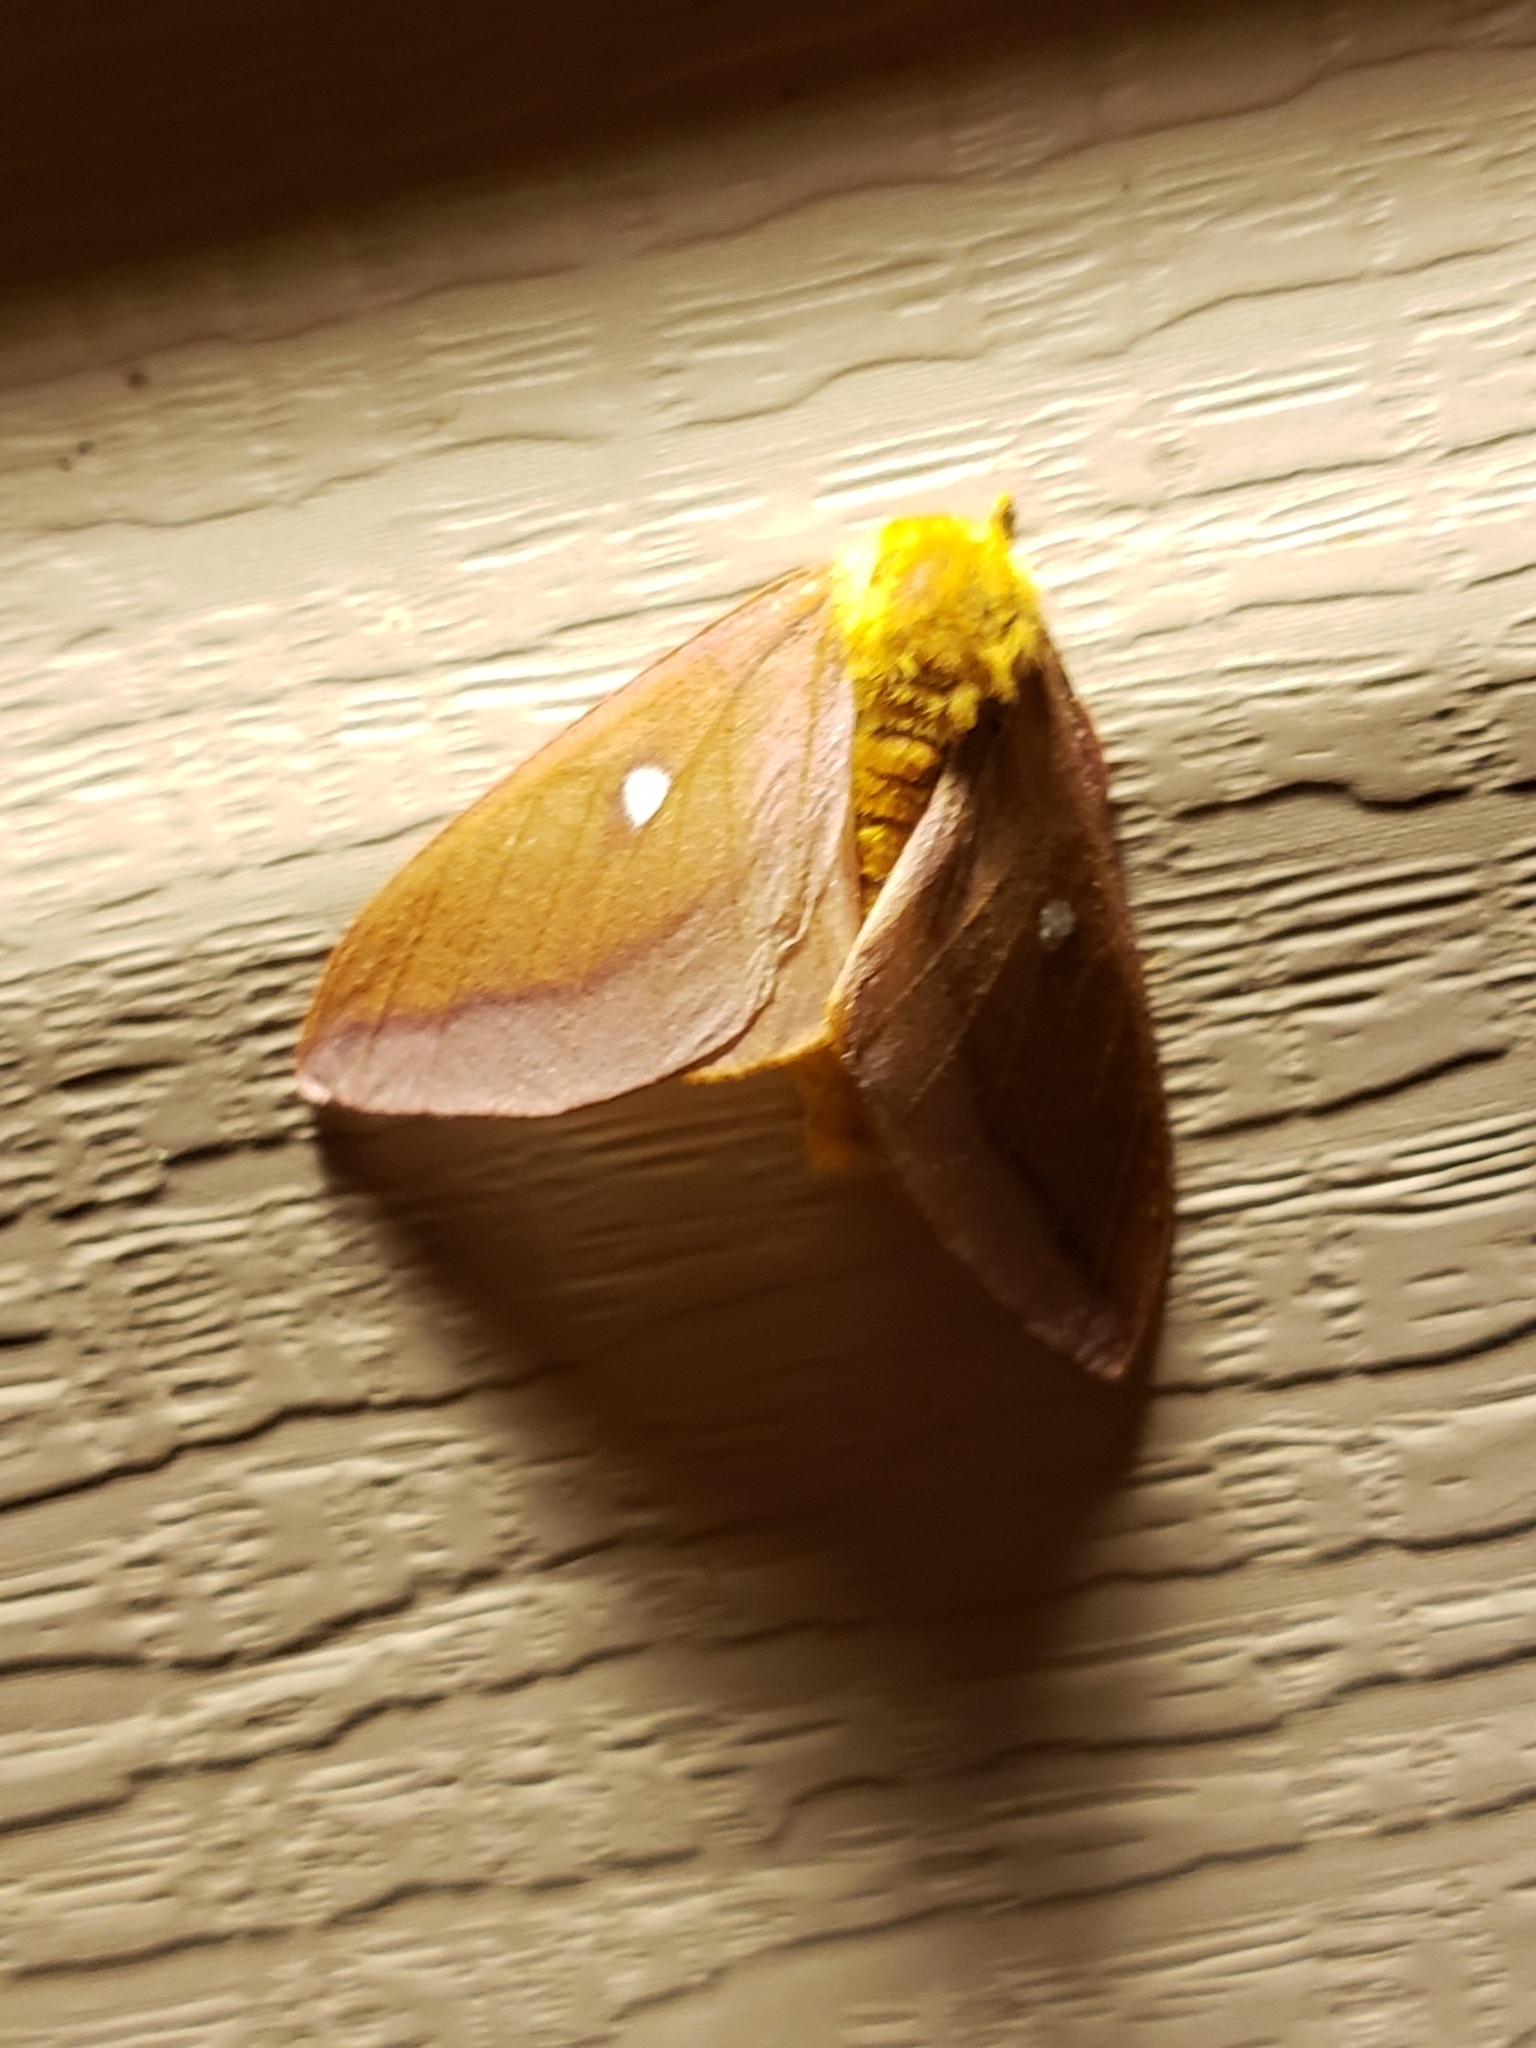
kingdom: Animalia
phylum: Arthropoda
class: Insecta
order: Lepidoptera
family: Saturniidae
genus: Anisota
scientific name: Anisota virginiensis
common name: Pink striped oakworm moth
